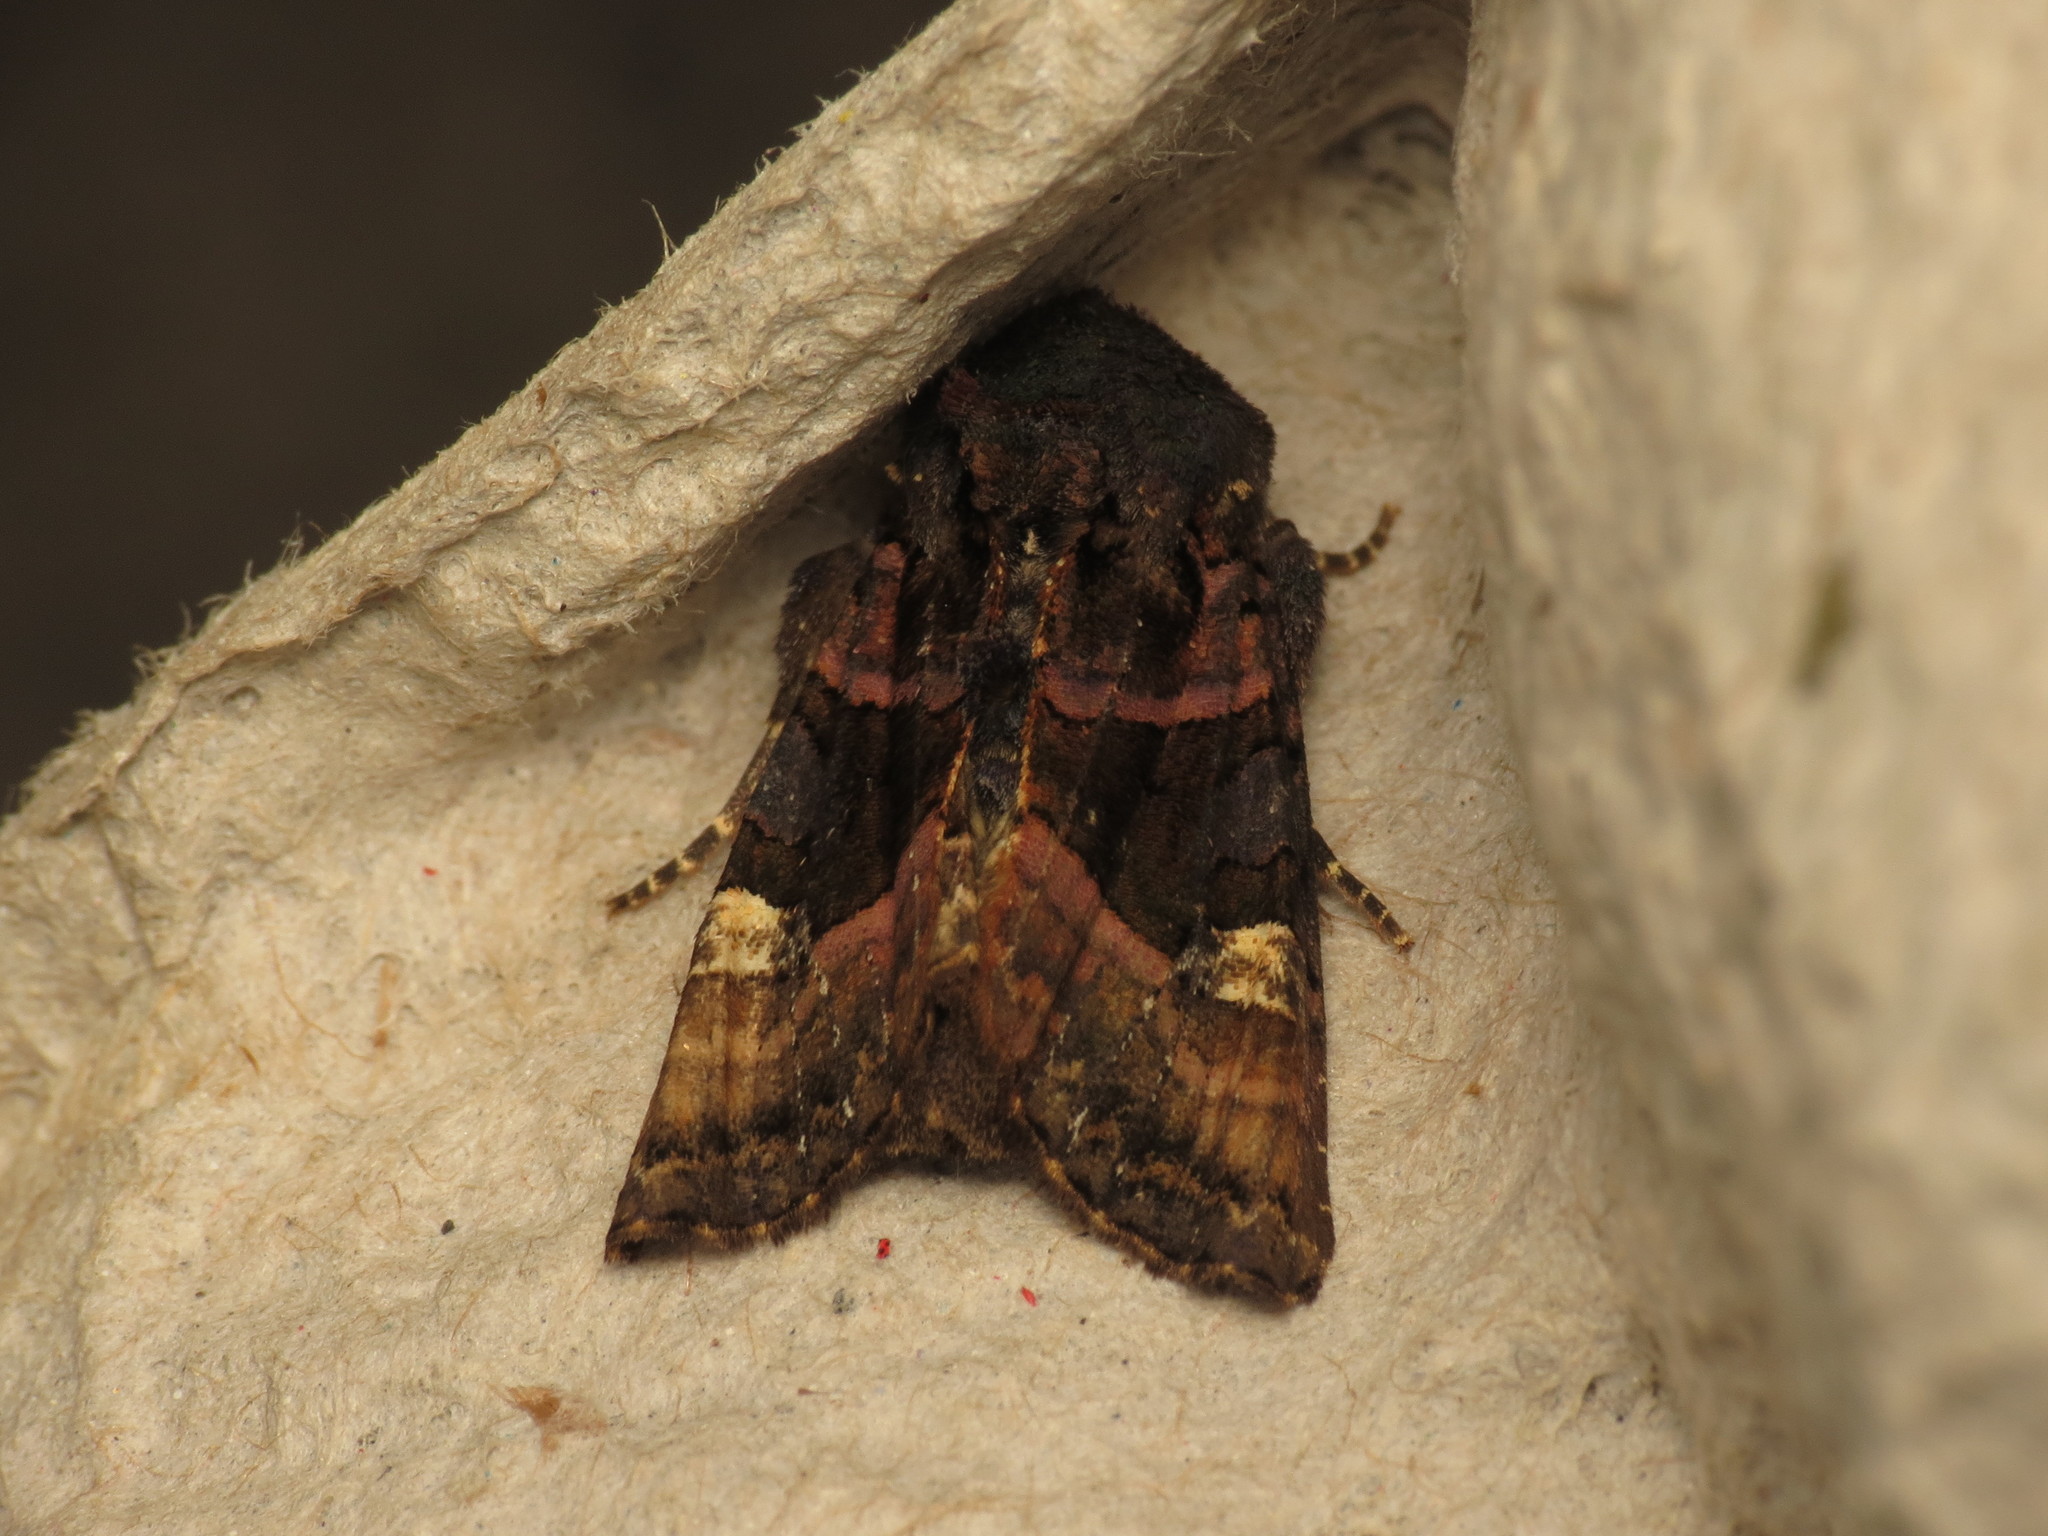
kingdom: Animalia
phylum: Arthropoda
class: Insecta
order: Lepidoptera
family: Noctuidae
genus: Euplexia
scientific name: Euplexia lucipara
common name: Small angle shades
